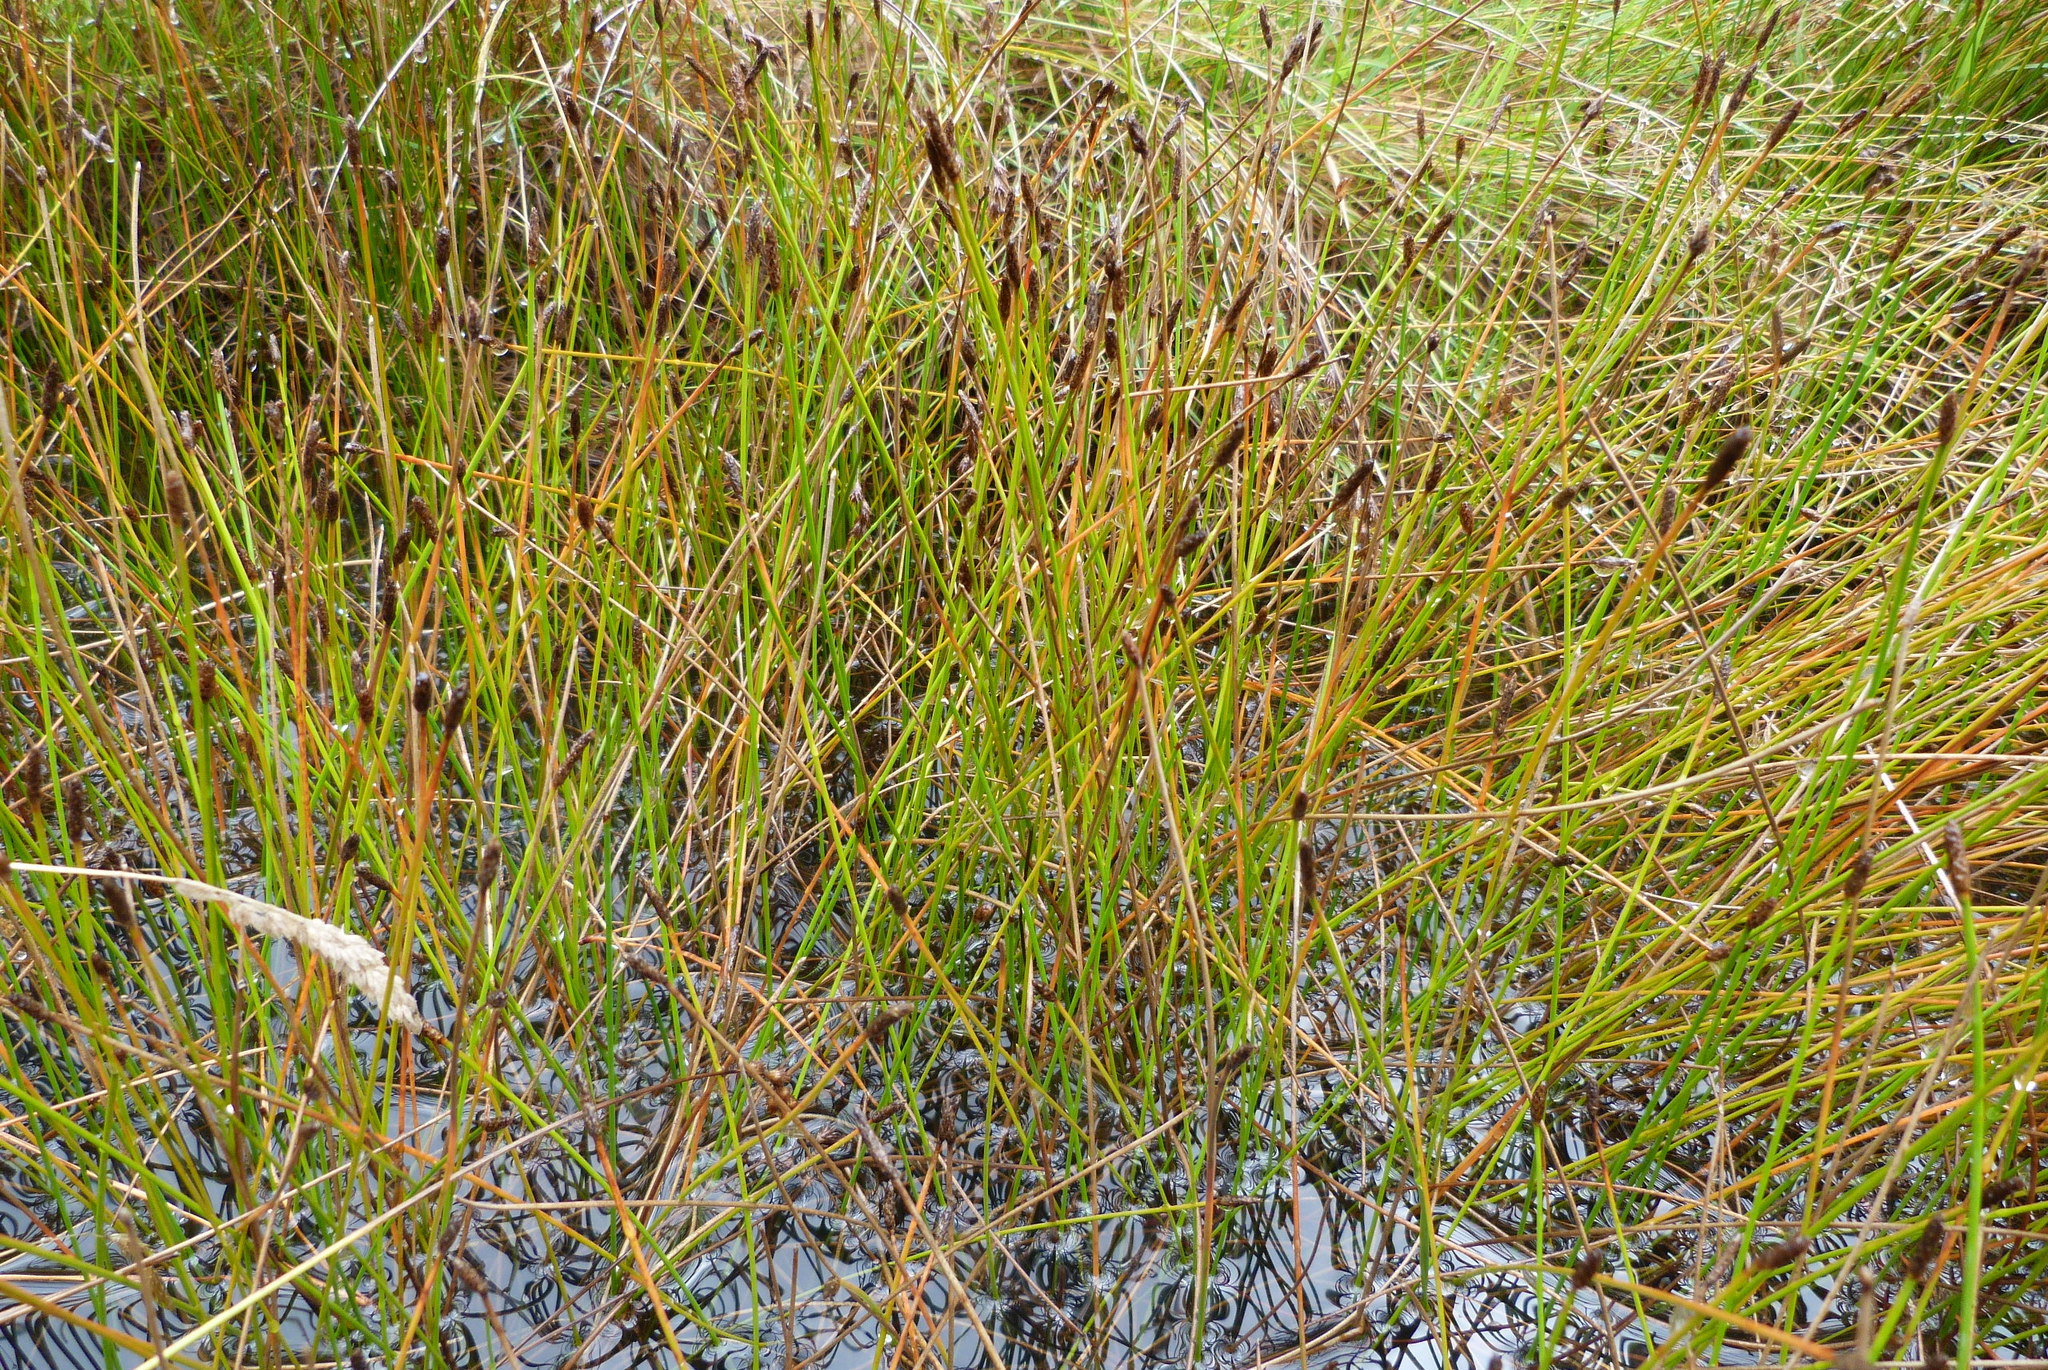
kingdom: Plantae
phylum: Tracheophyta
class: Liliopsida
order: Poales
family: Cyperaceae
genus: Eleocharis
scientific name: Eleocharis acuta
